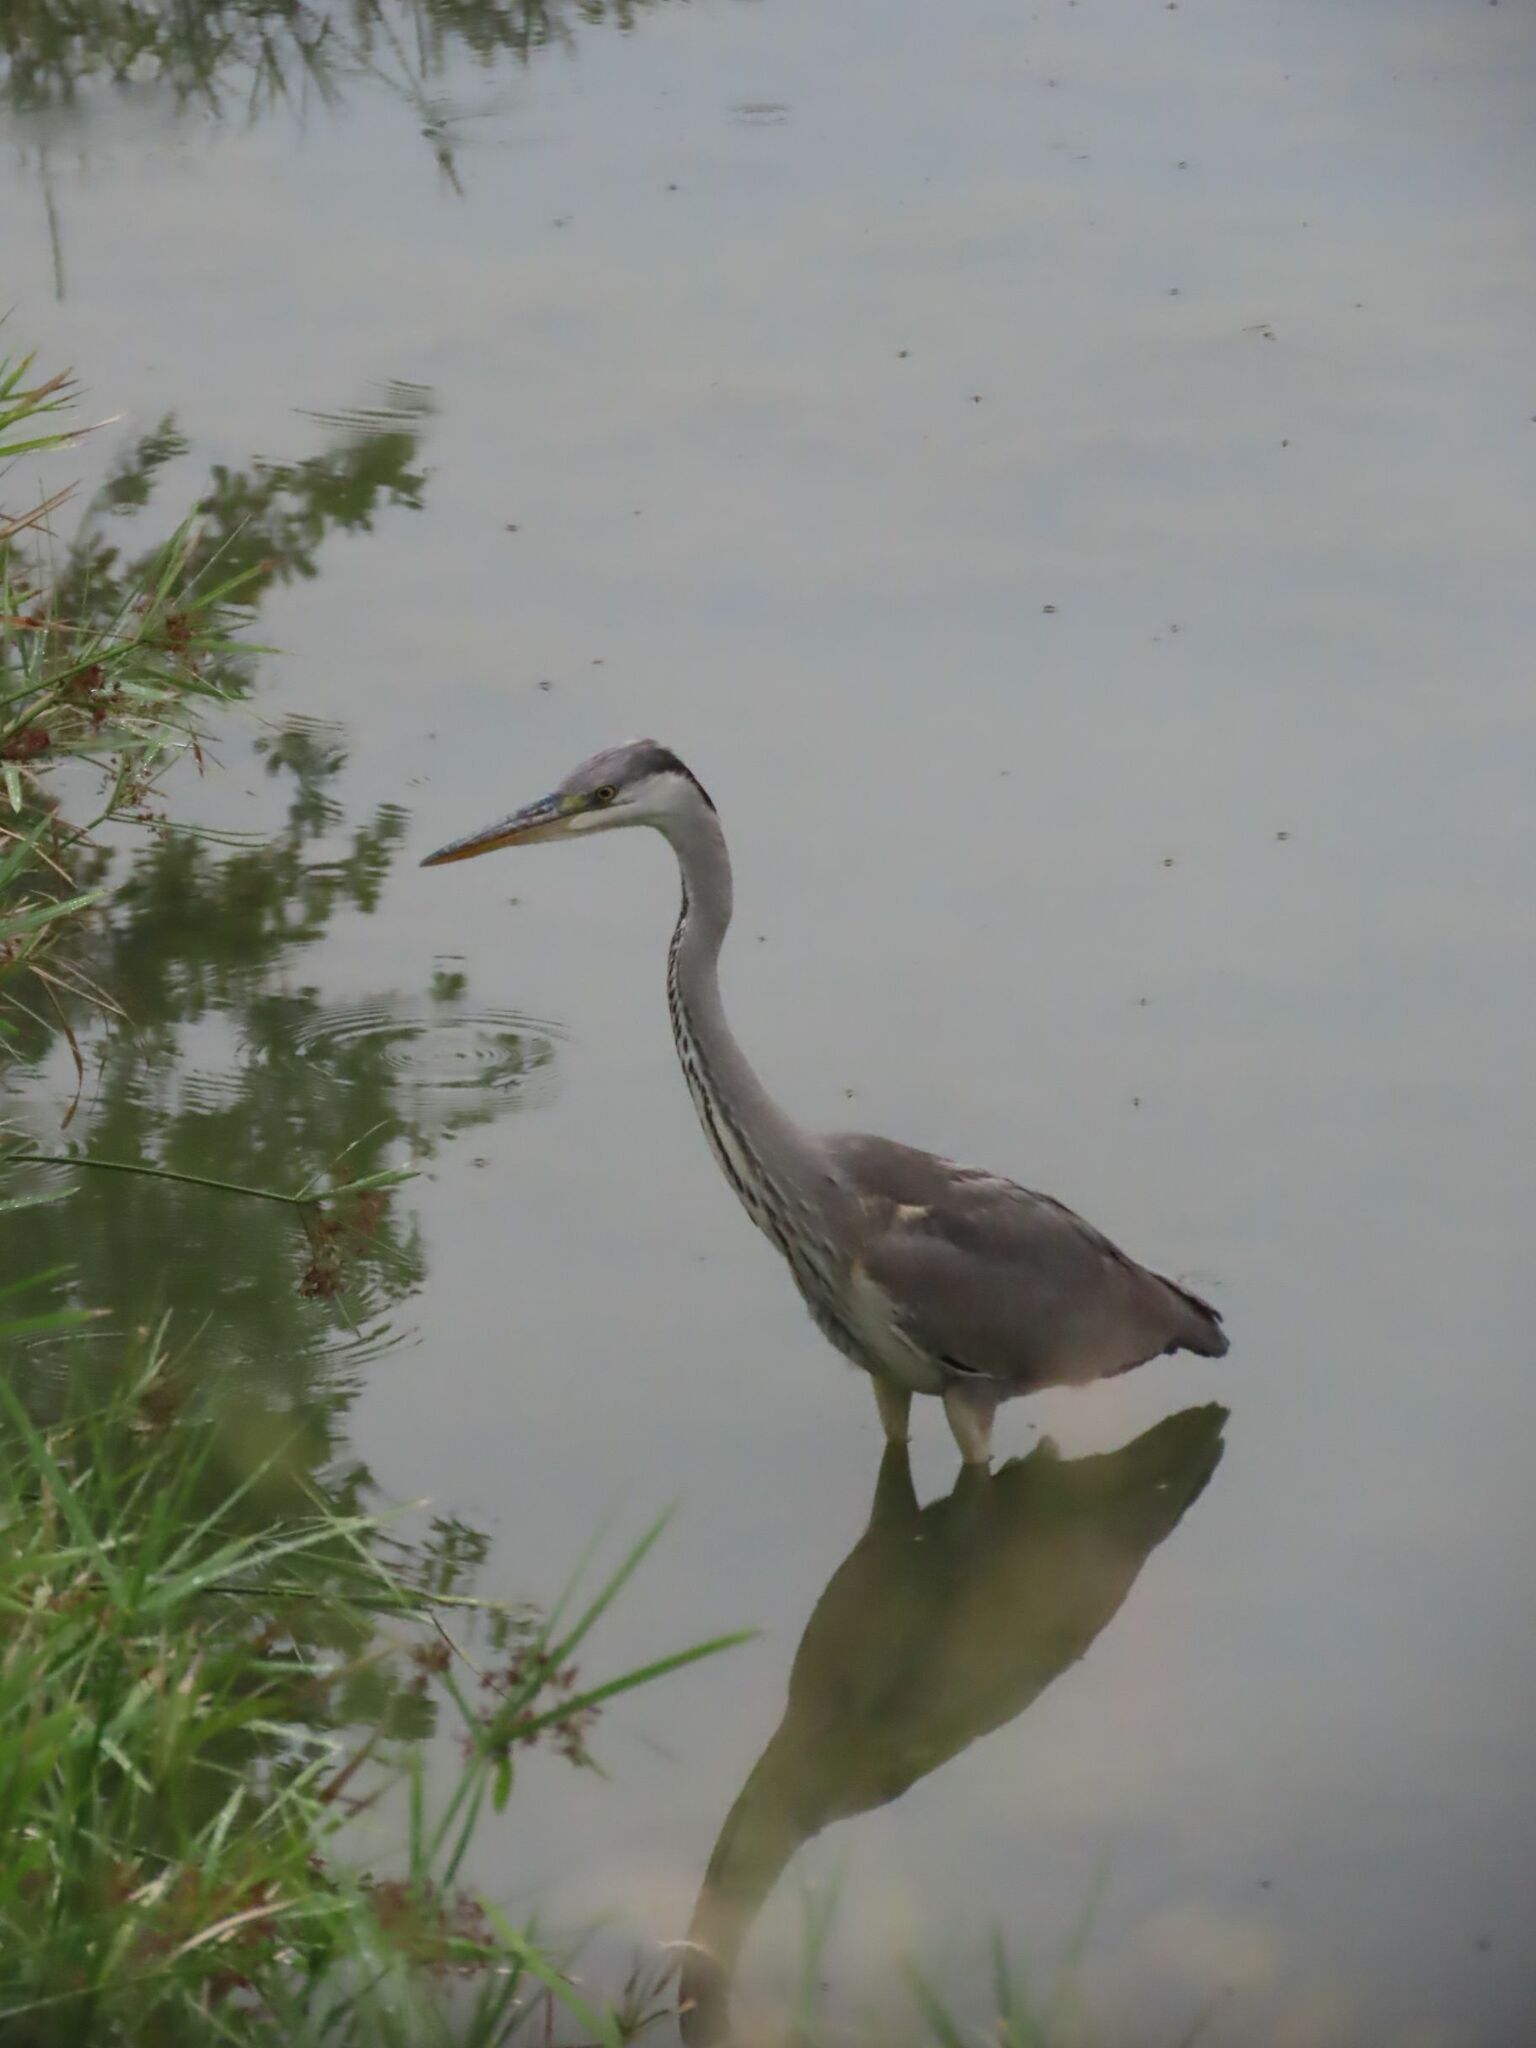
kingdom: Animalia
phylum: Chordata
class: Aves
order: Pelecaniformes
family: Ardeidae
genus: Ardea
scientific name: Ardea cinerea
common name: Grey heron
